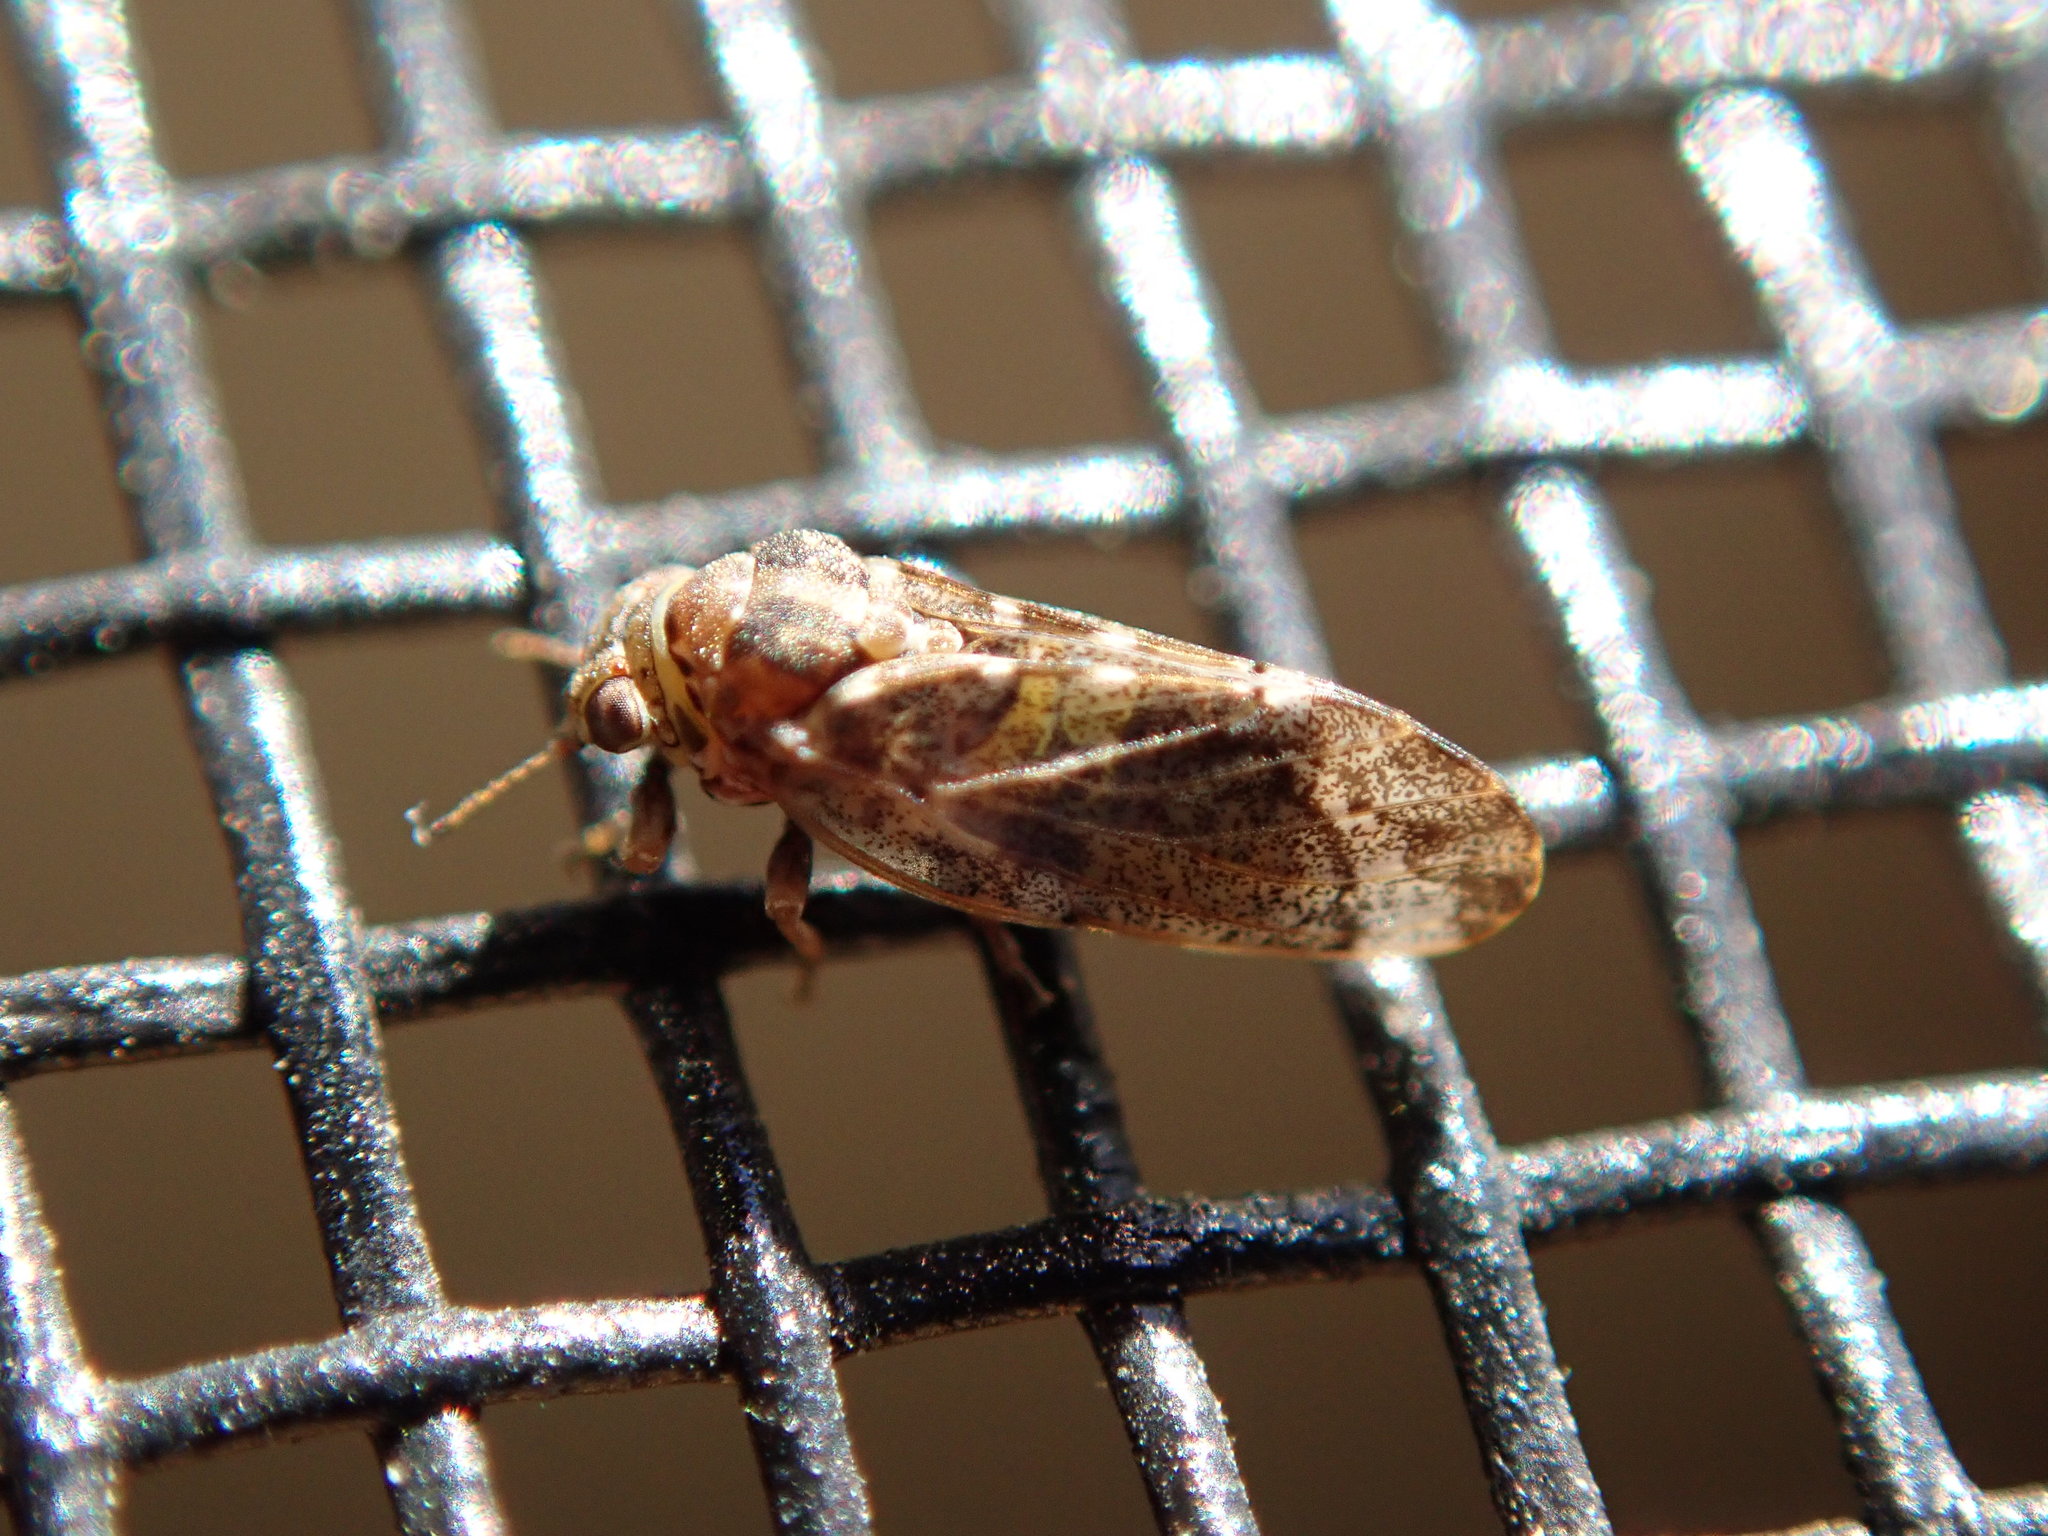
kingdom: Animalia
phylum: Arthropoda
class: Insecta
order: Hemiptera
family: Aphalaridae
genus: Pachypsylla
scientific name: Pachypsylla
